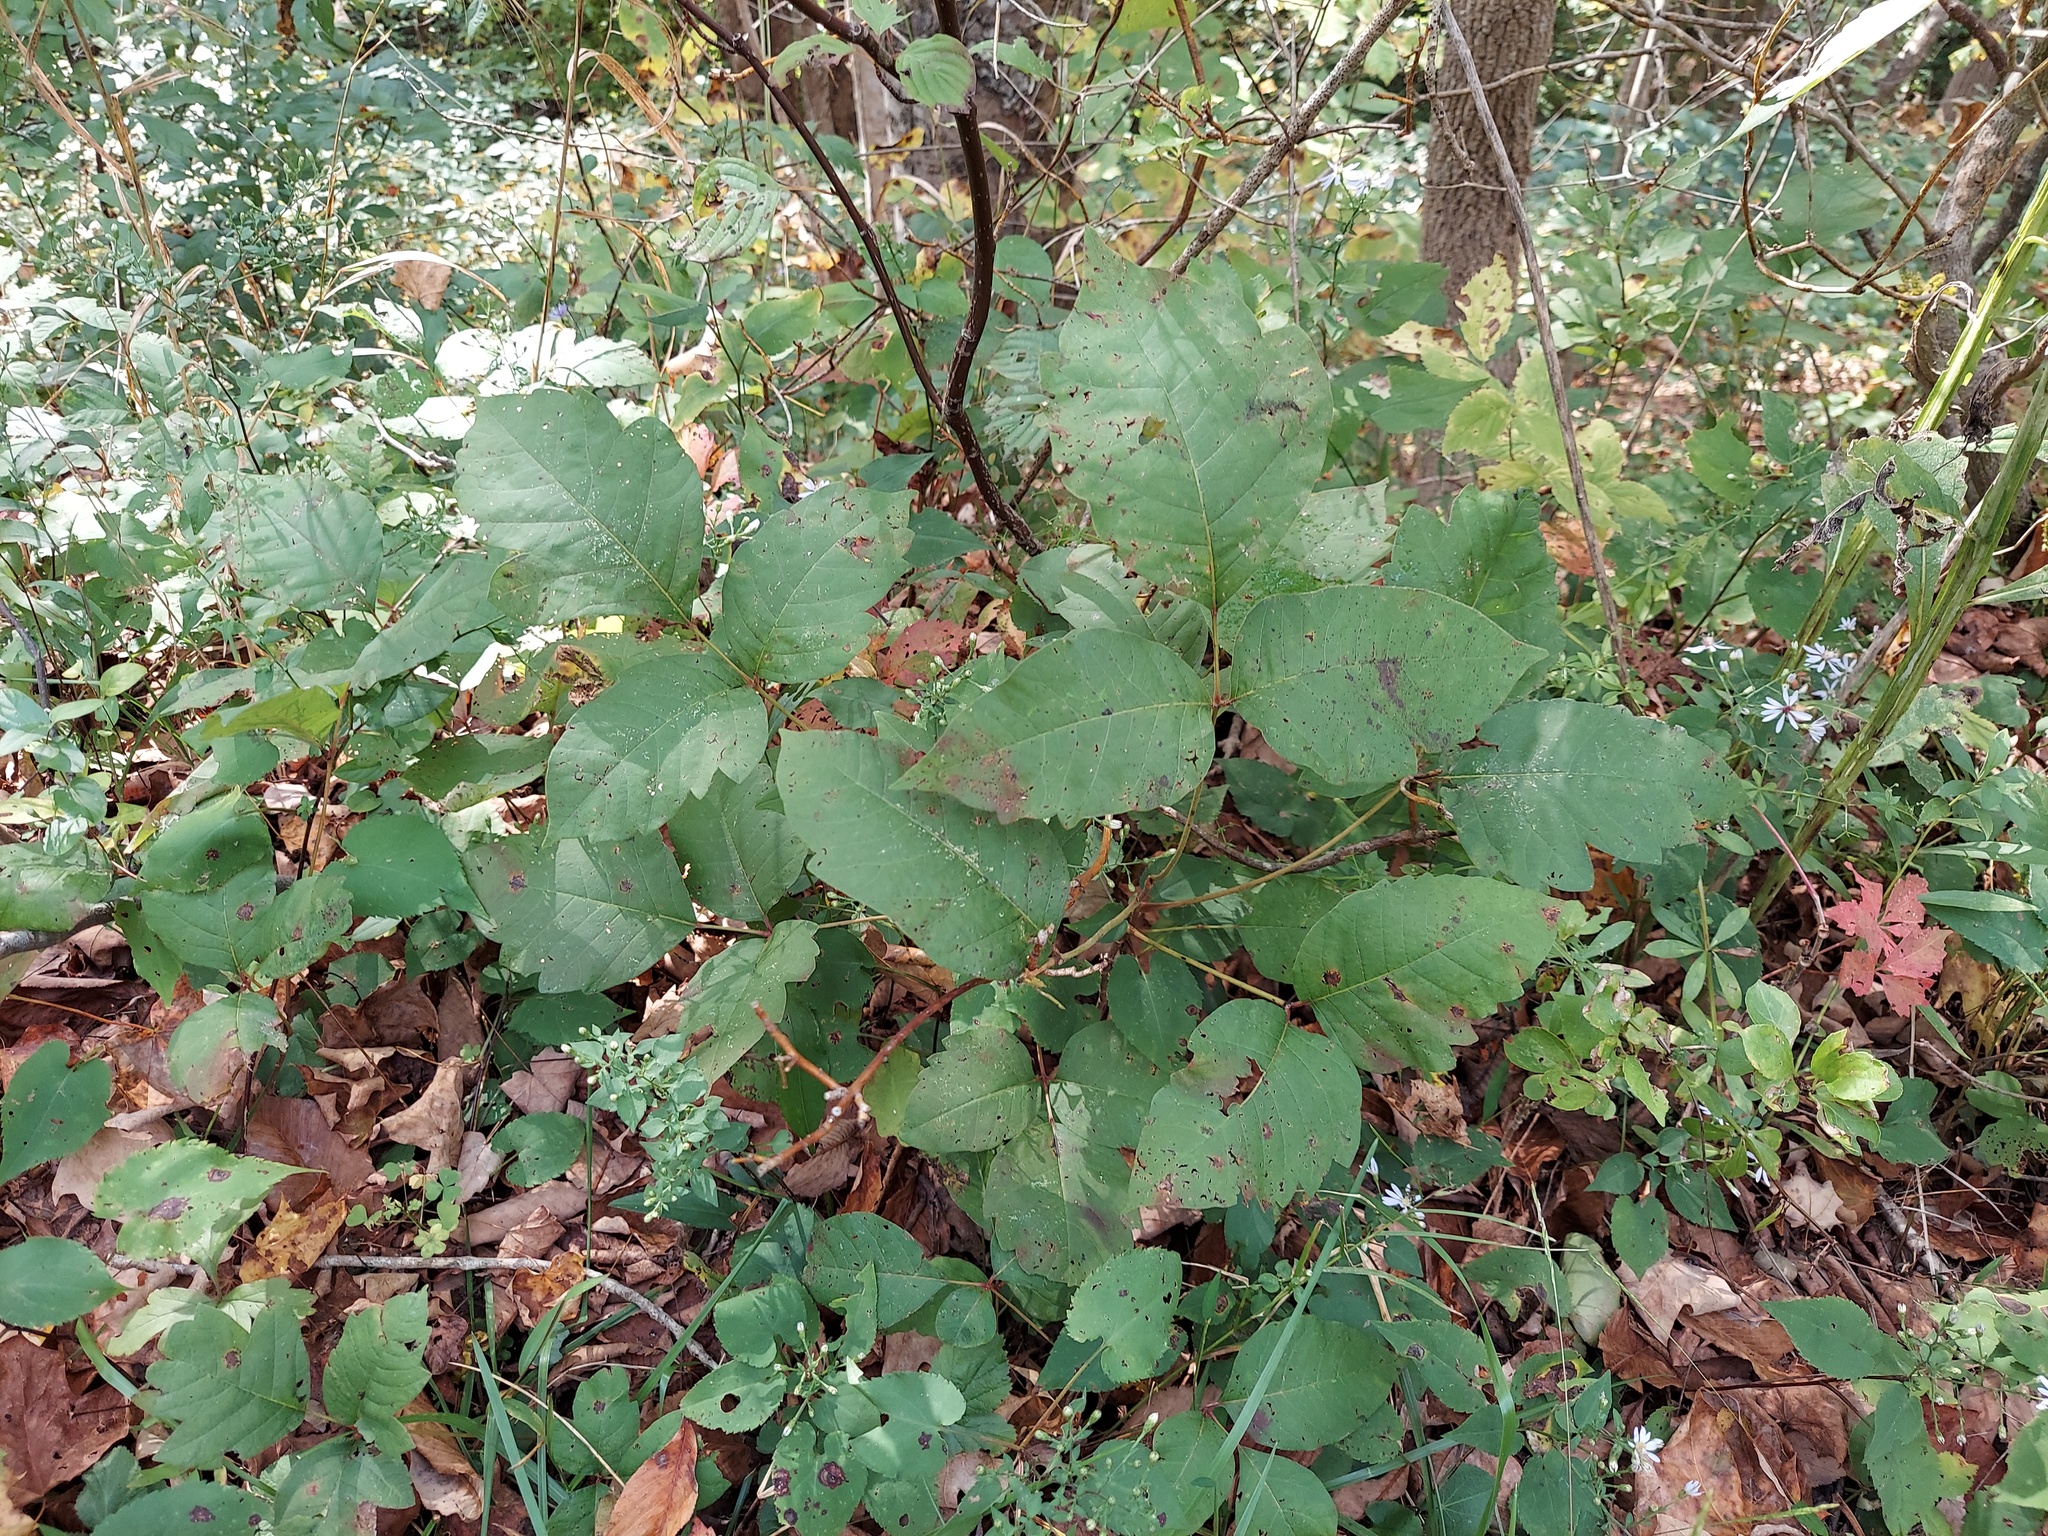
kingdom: Plantae
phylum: Tracheophyta
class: Magnoliopsida
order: Sapindales
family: Anacardiaceae
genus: Toxicodendron
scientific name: Toxicodendron radicans
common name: Poison ivy
